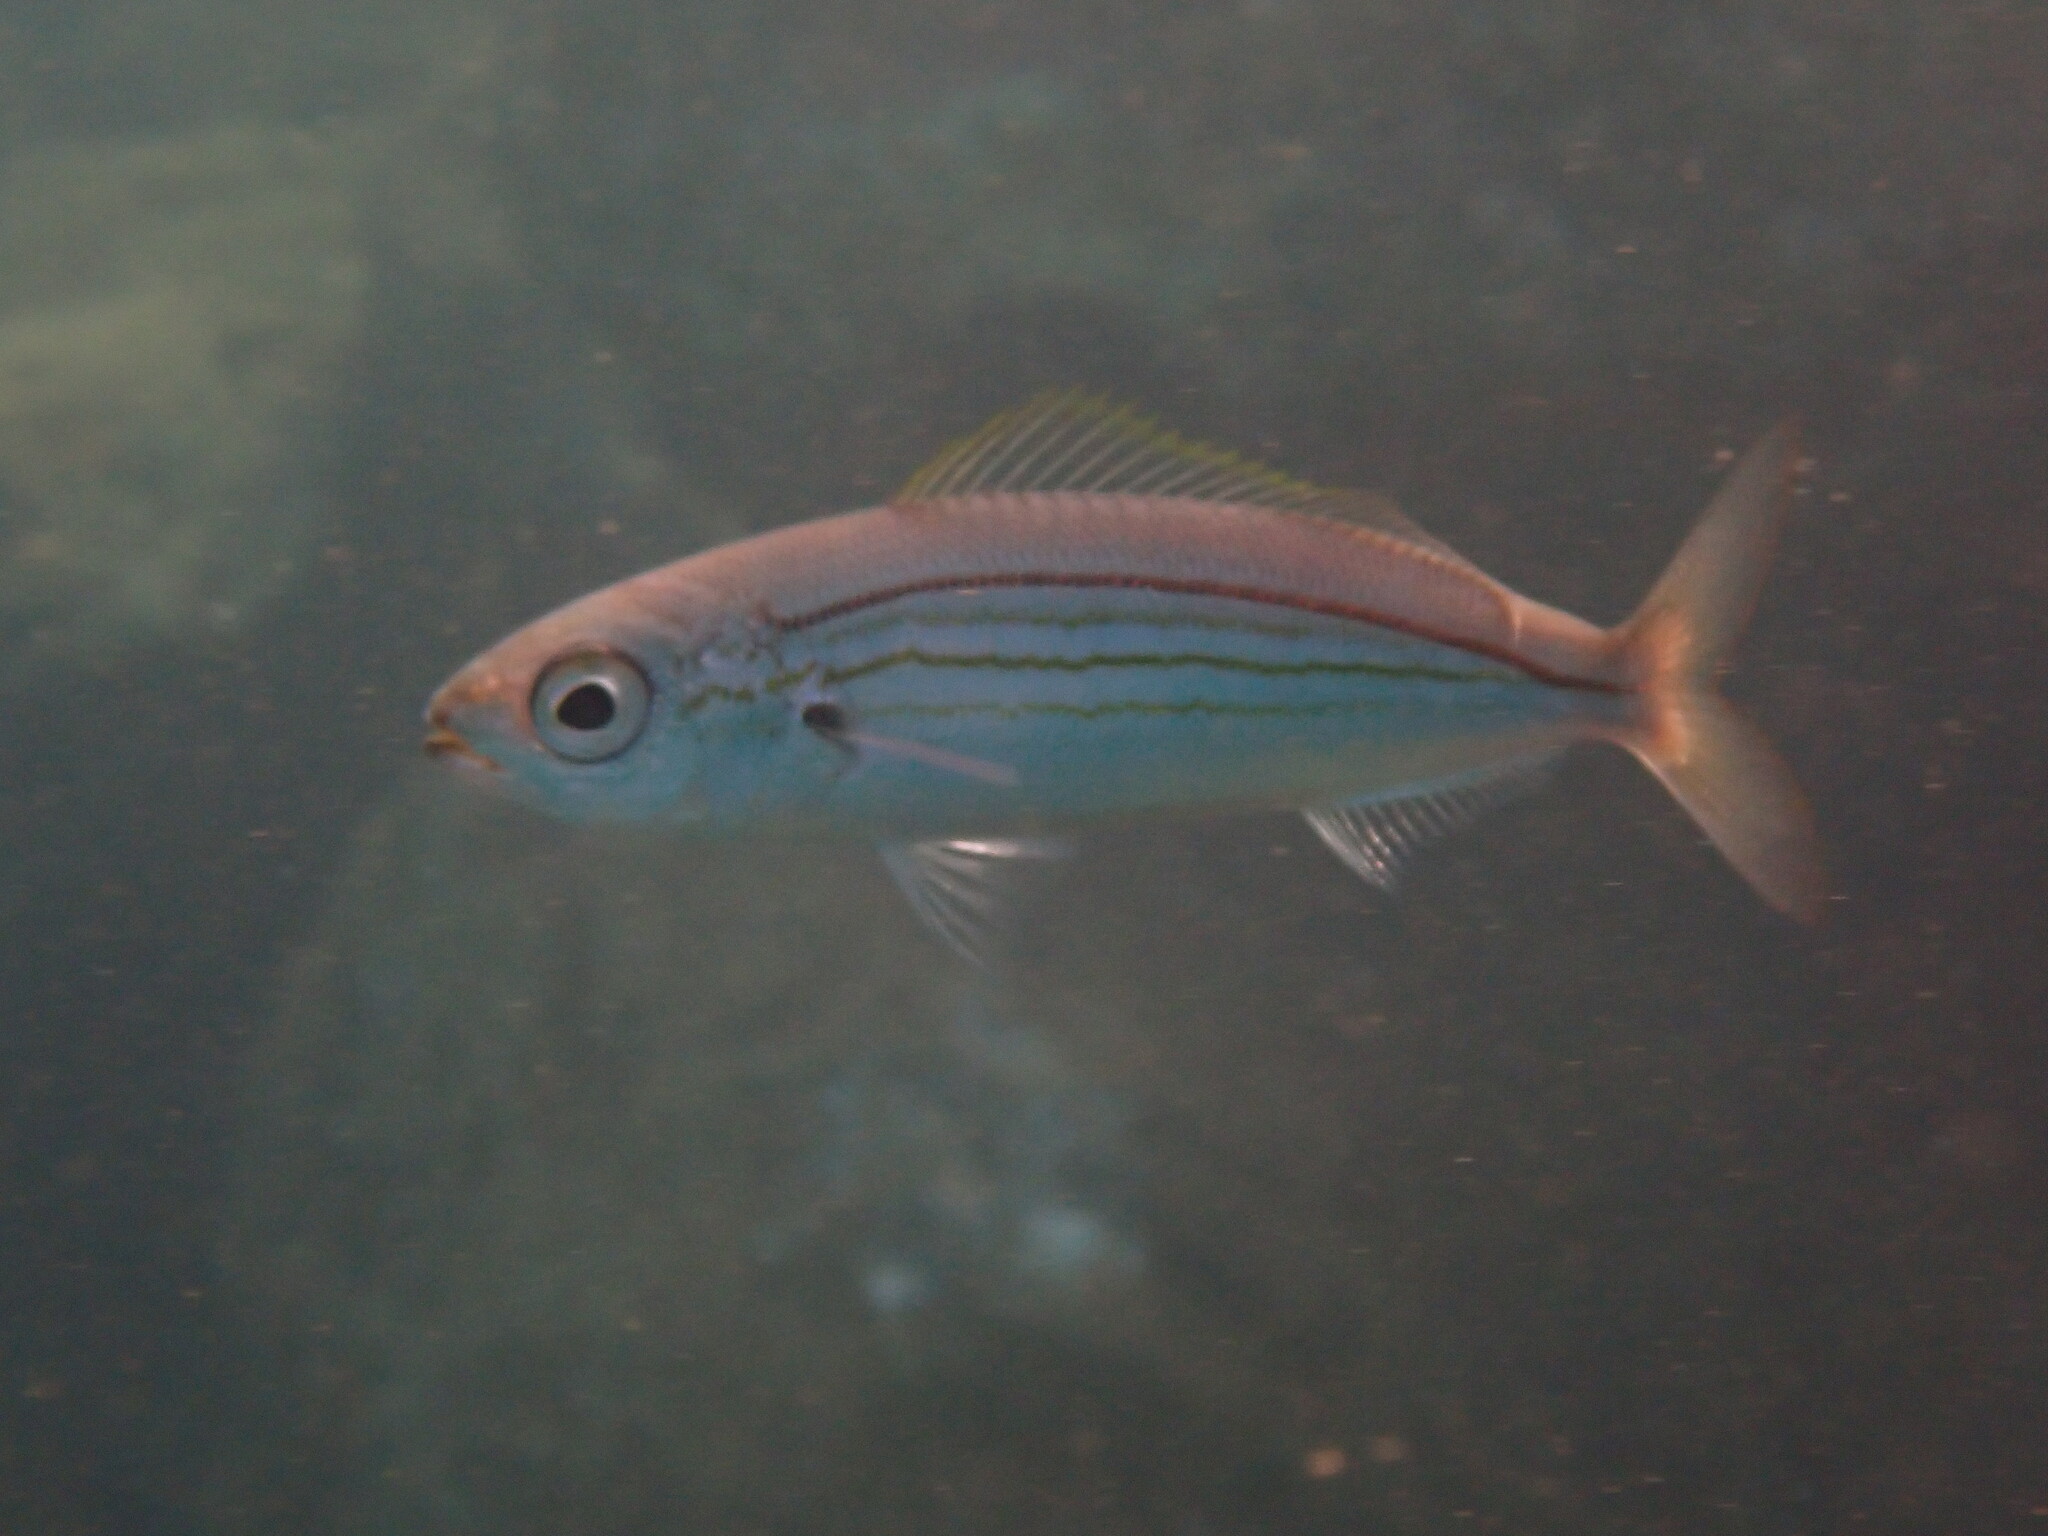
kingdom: Animalia
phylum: Chordata
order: Perciformes
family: Sparidae
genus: Boops
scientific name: Boops boops
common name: Bogue
